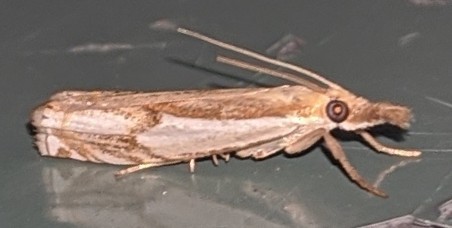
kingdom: Animalia
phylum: Arthropoda
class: Insecta
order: Lepidoptera
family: Crambidae
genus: Crambus
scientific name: Crambus agitatellus
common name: Double-banded grass-veneer
